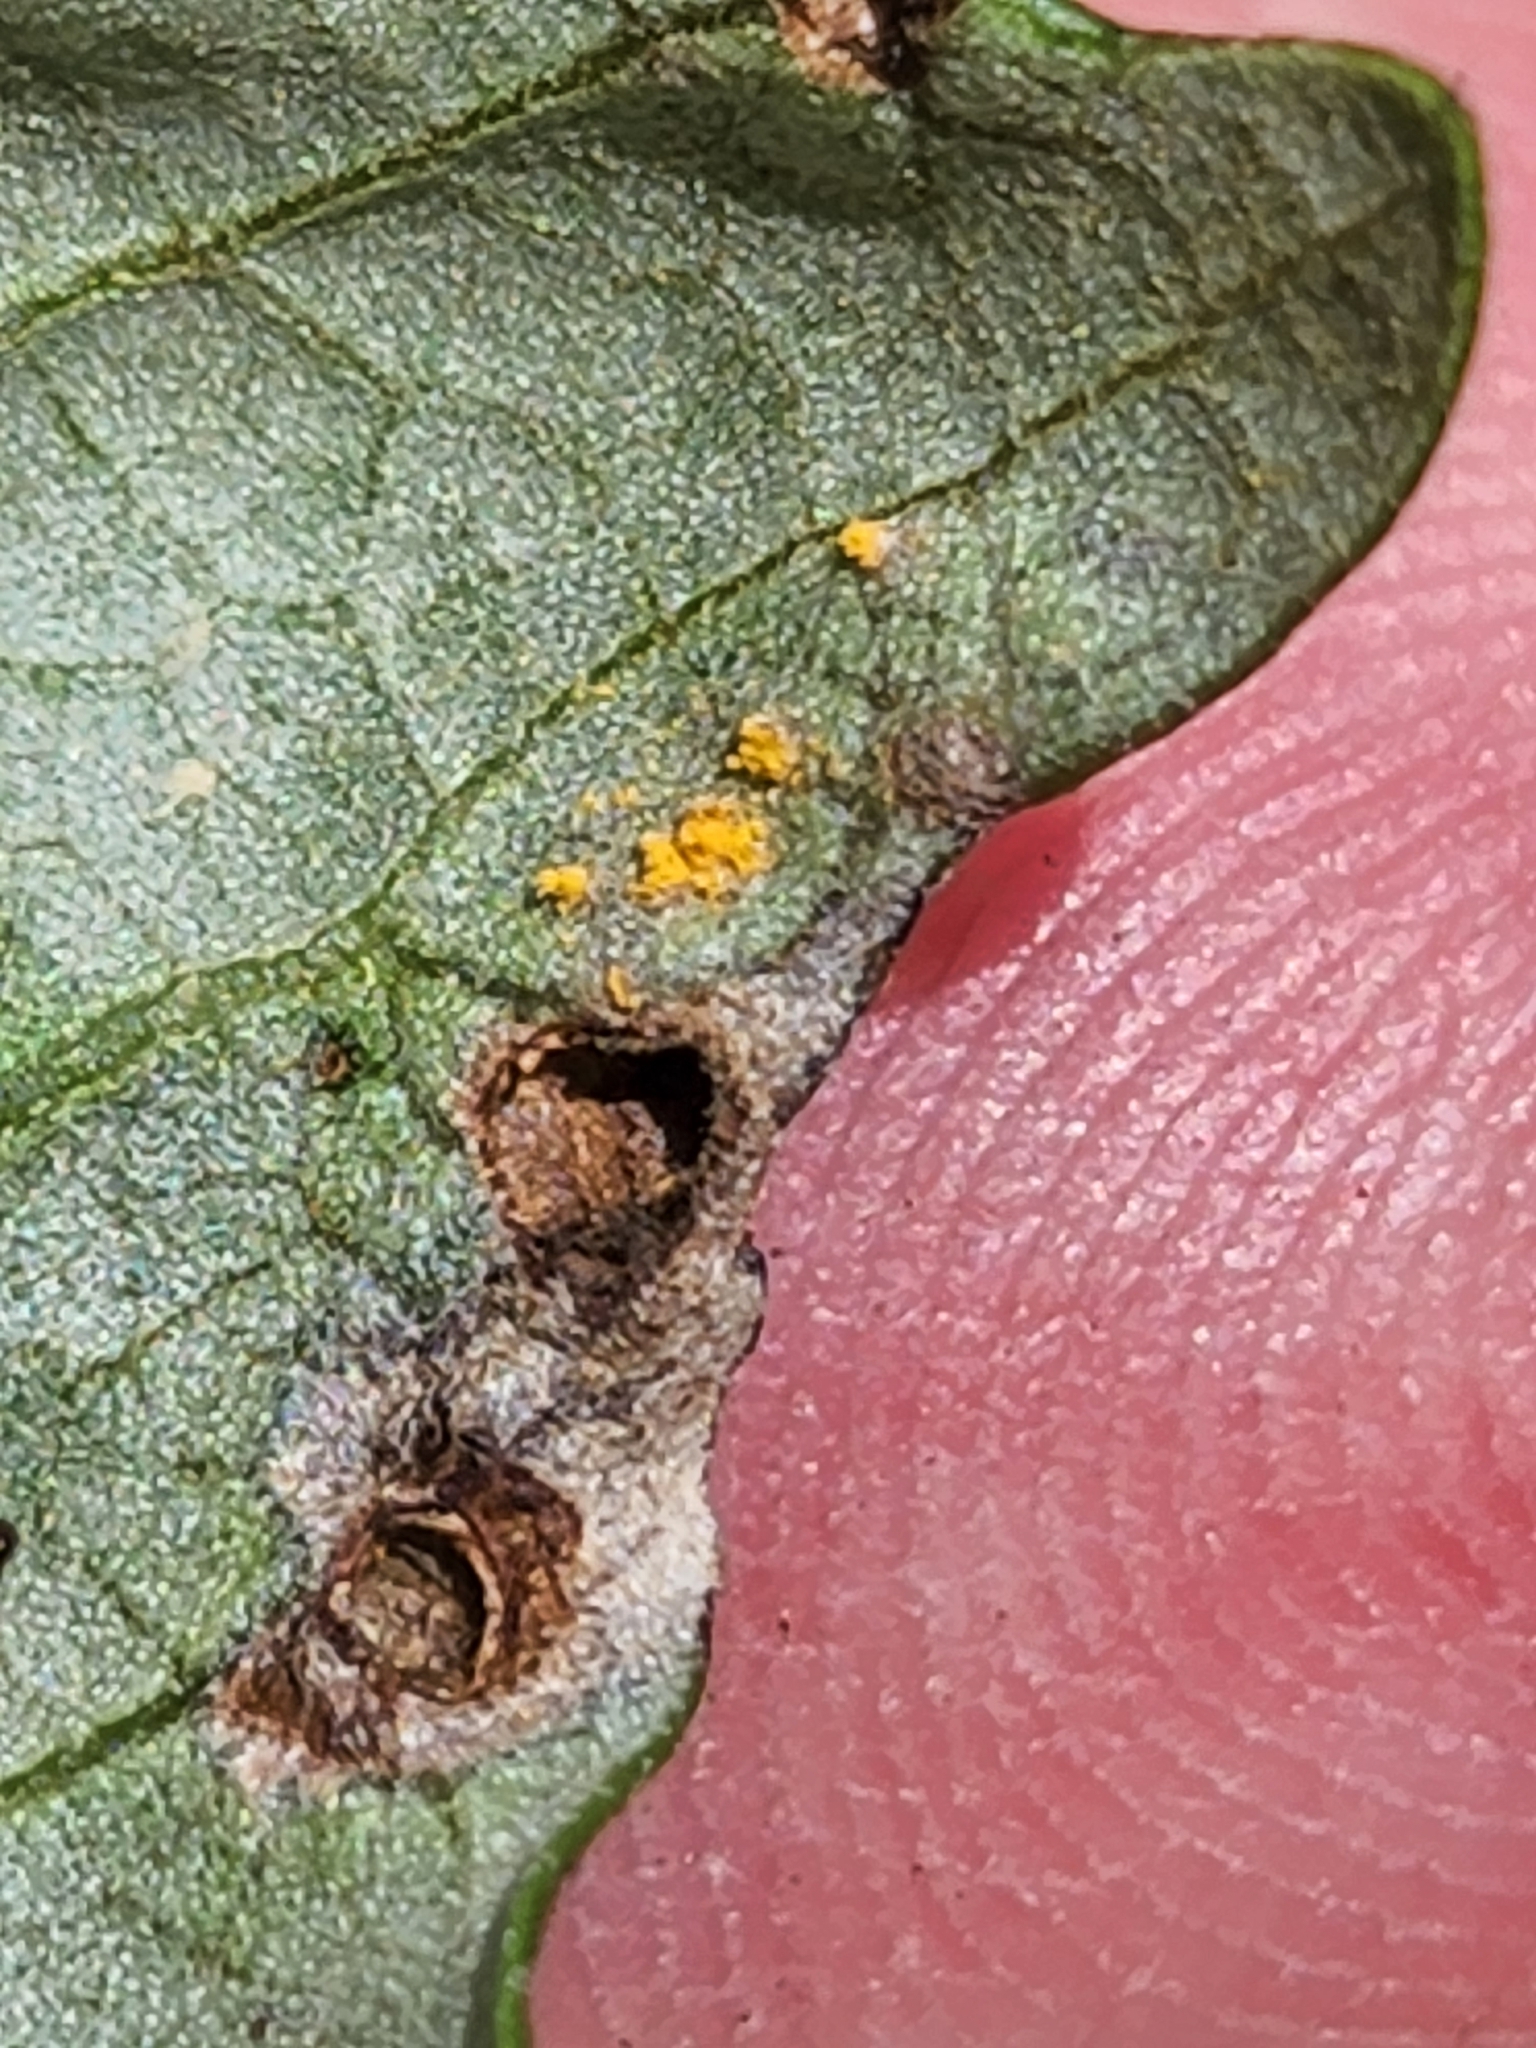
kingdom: Fungi
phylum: Basidiomycota
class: Pucciniomycetes
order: Pucciniales
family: Cronartiaceae
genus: Cronartium
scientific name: Cronartium quercuum
